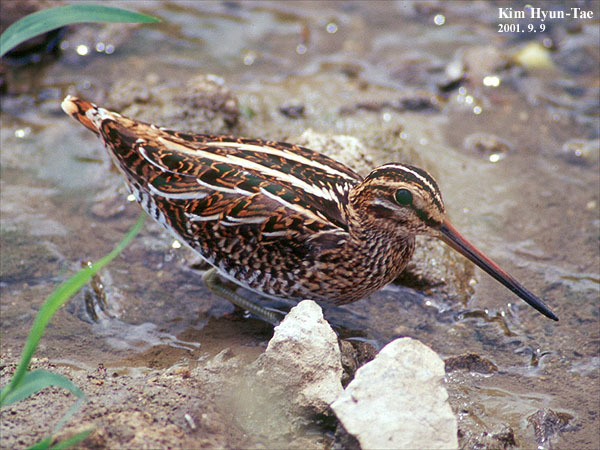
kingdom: Animalia
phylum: Chordata
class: Aves
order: Charadriiformes
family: Scolopacidae
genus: Gallinago
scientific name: Gallinago gallinago
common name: Common snipe
